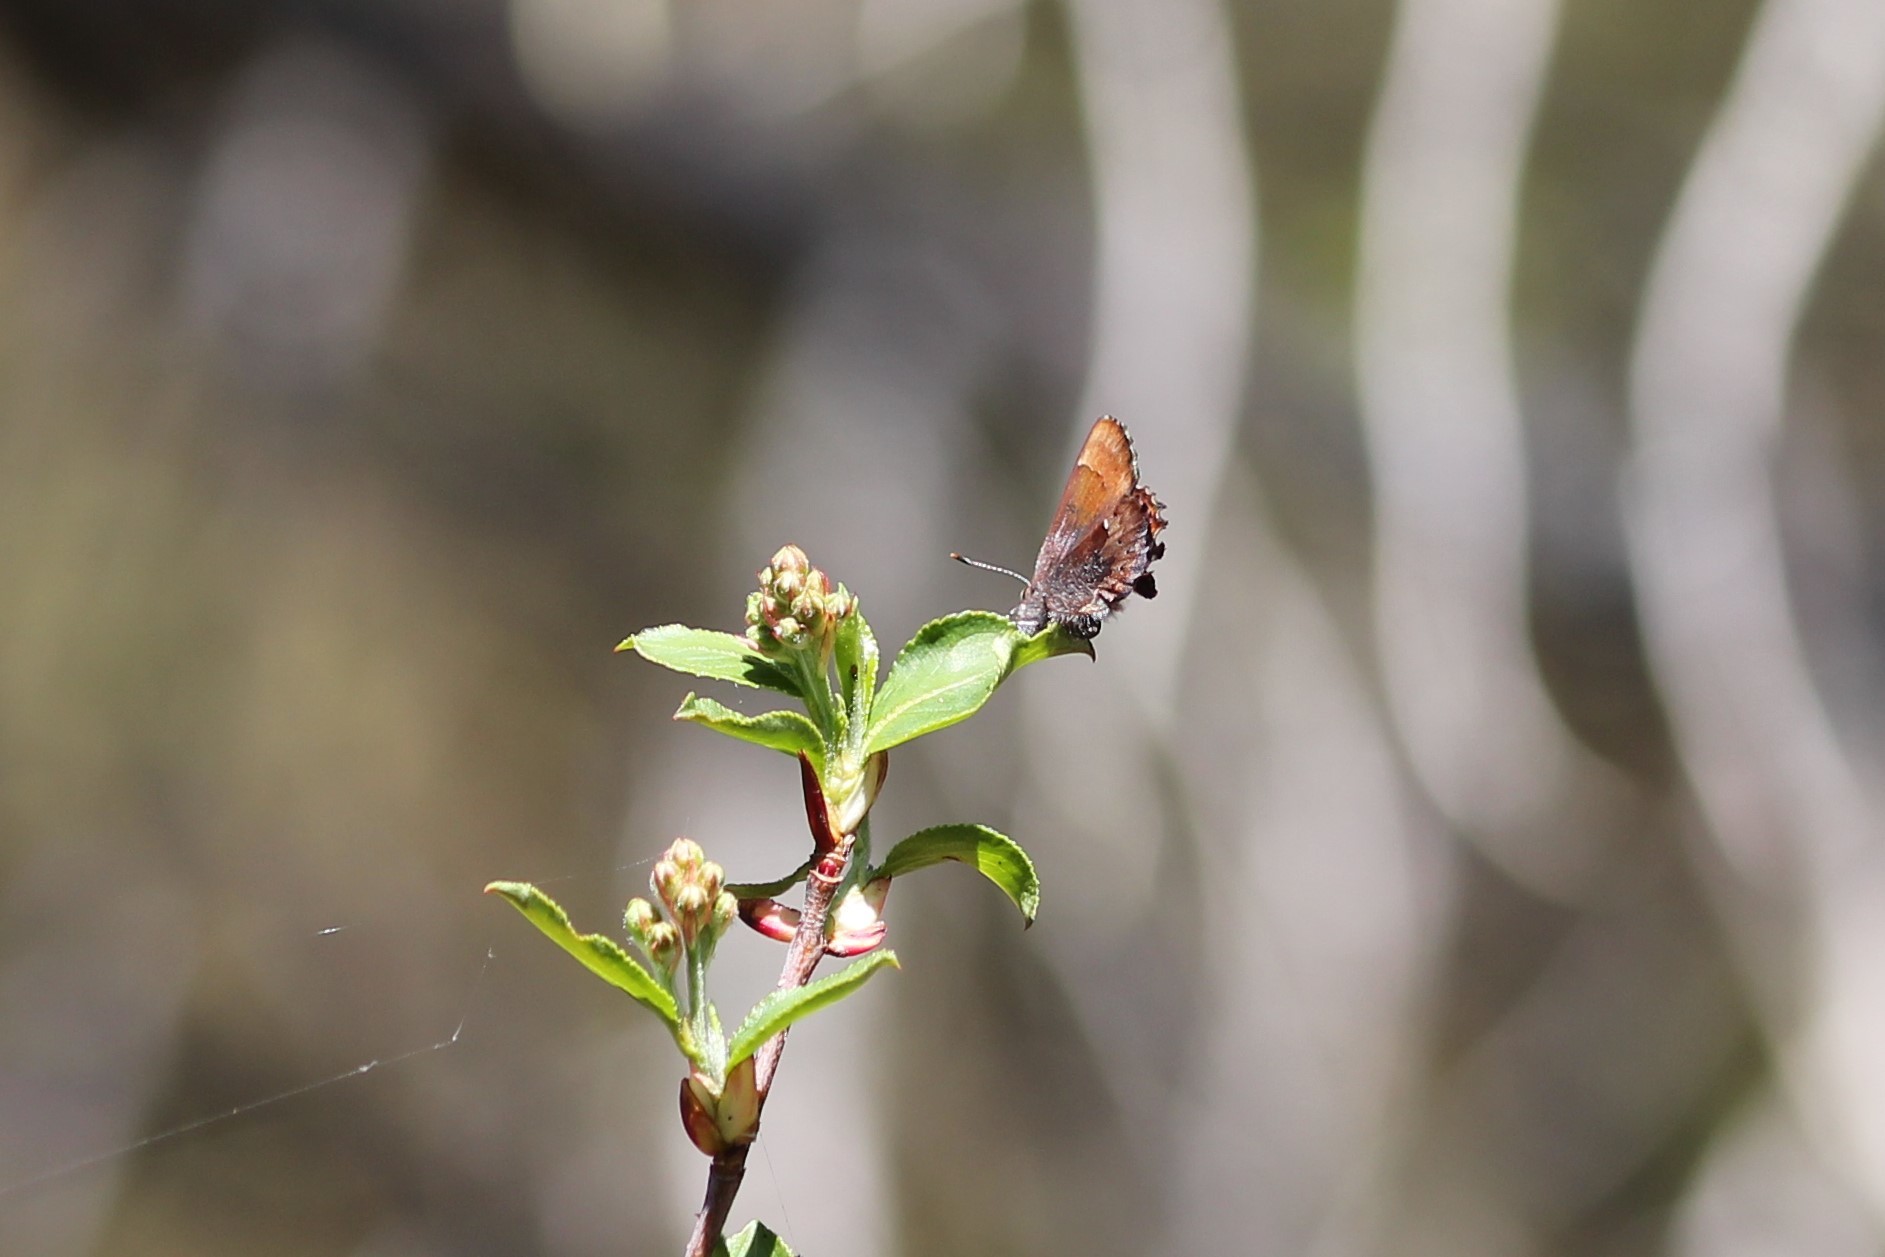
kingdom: Animalia
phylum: Arthropoda
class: Insecta
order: Lepidoptera
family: Lycaenidae
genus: Incisalia
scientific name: Incisalia henrici
